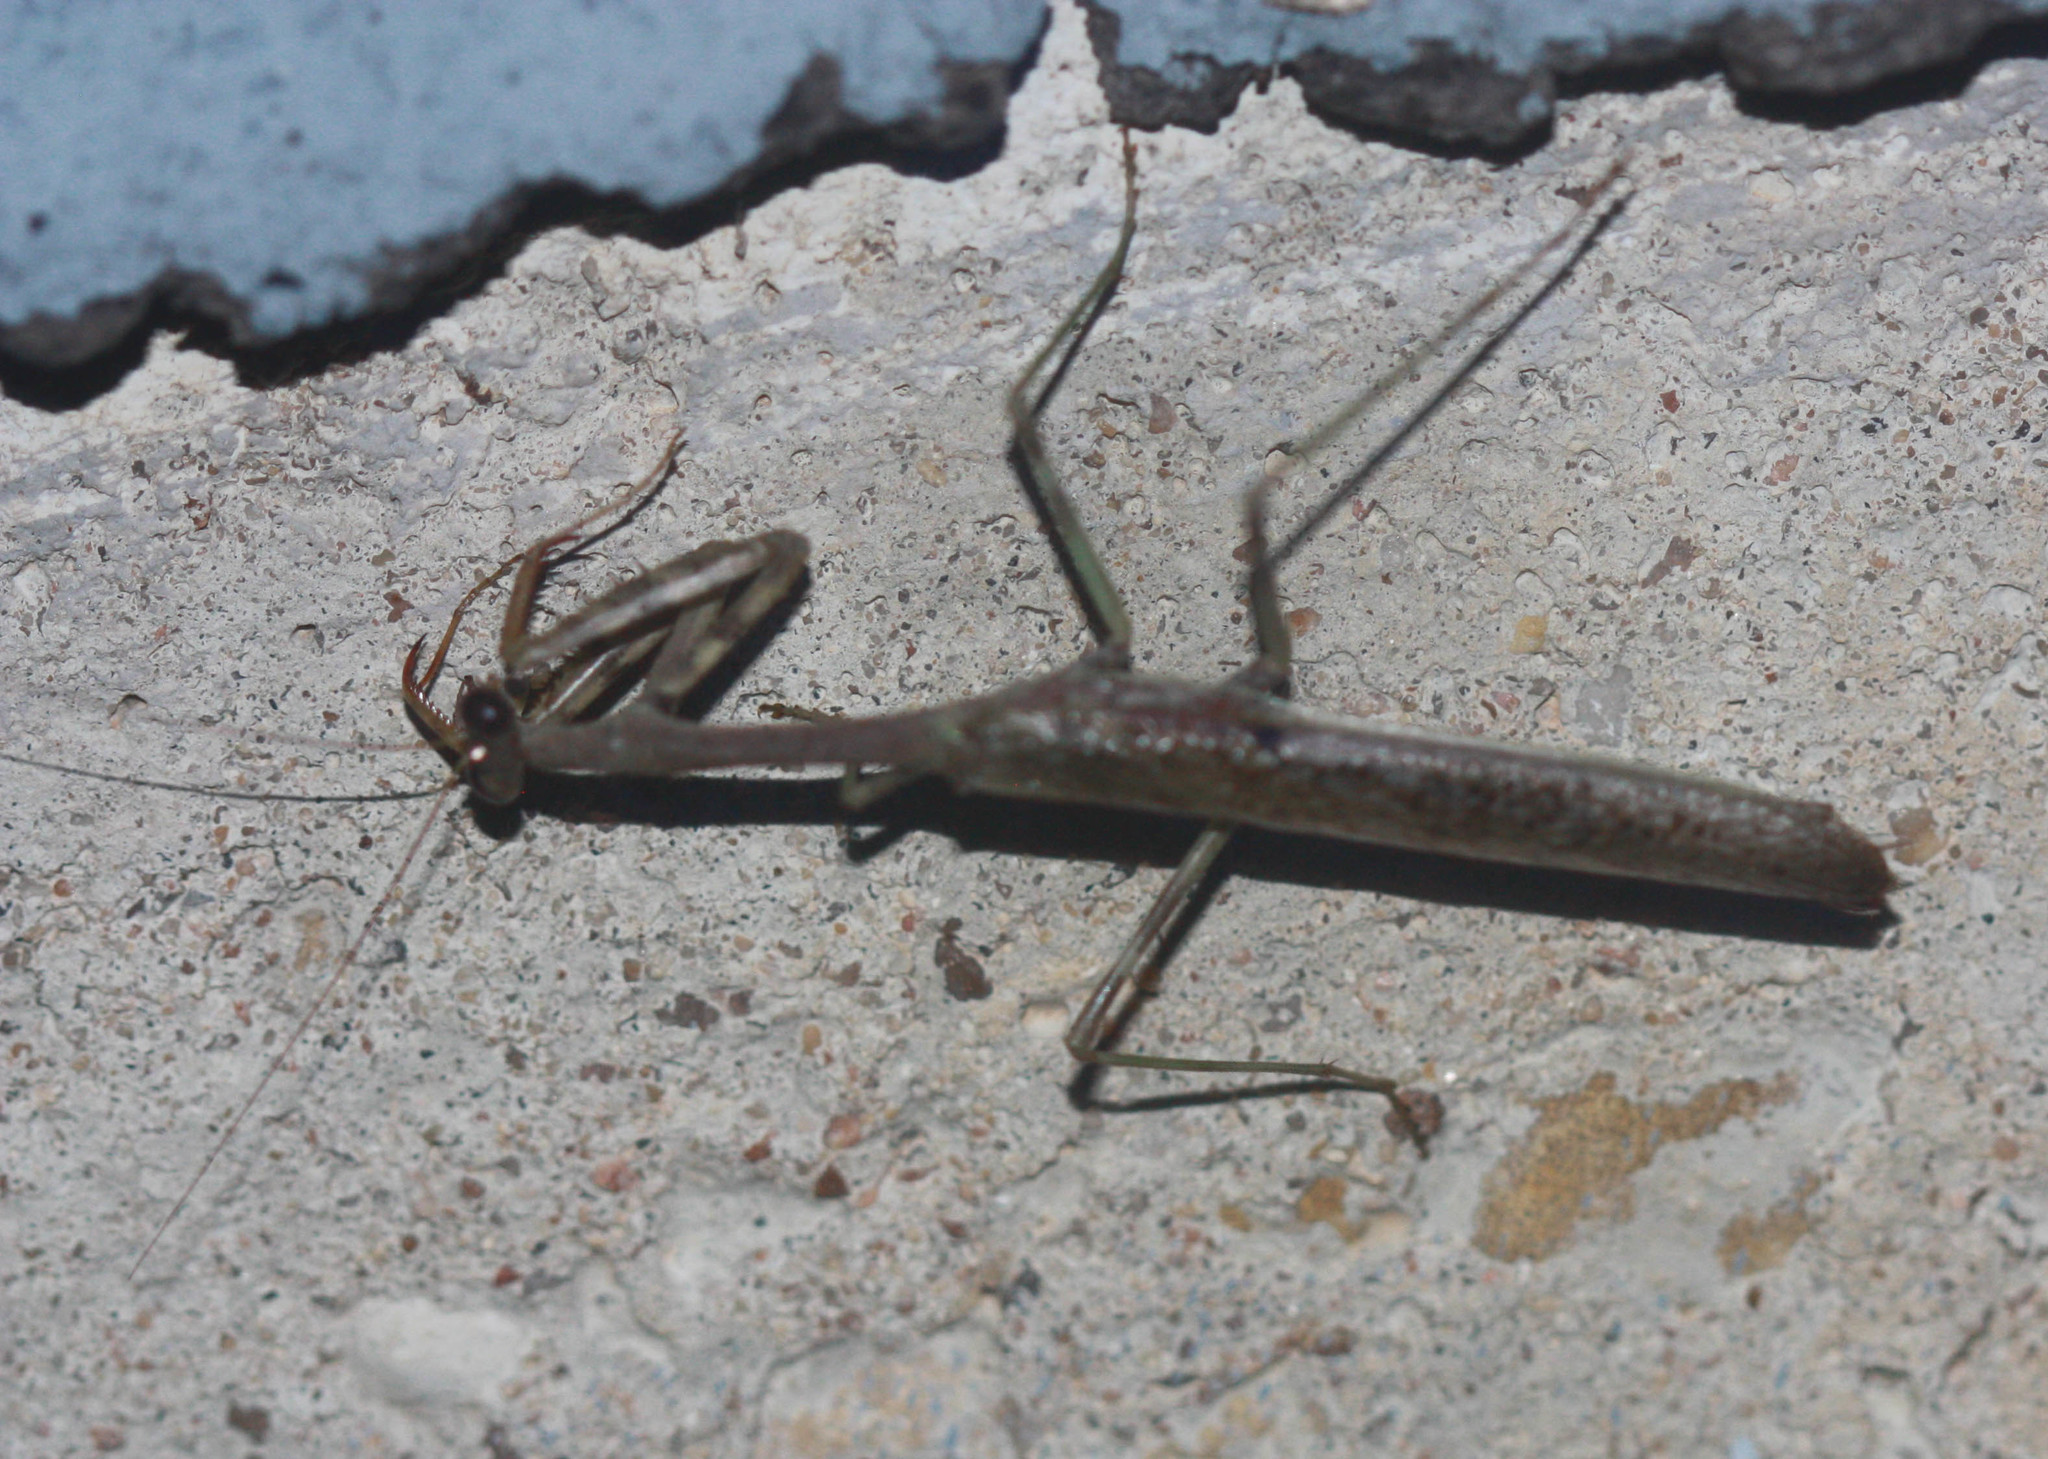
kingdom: Animalia
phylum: Arthropoda
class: Insecta
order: Mantodea
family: Mantidae
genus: Stagmomantis
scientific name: Stagmomantis carolina
